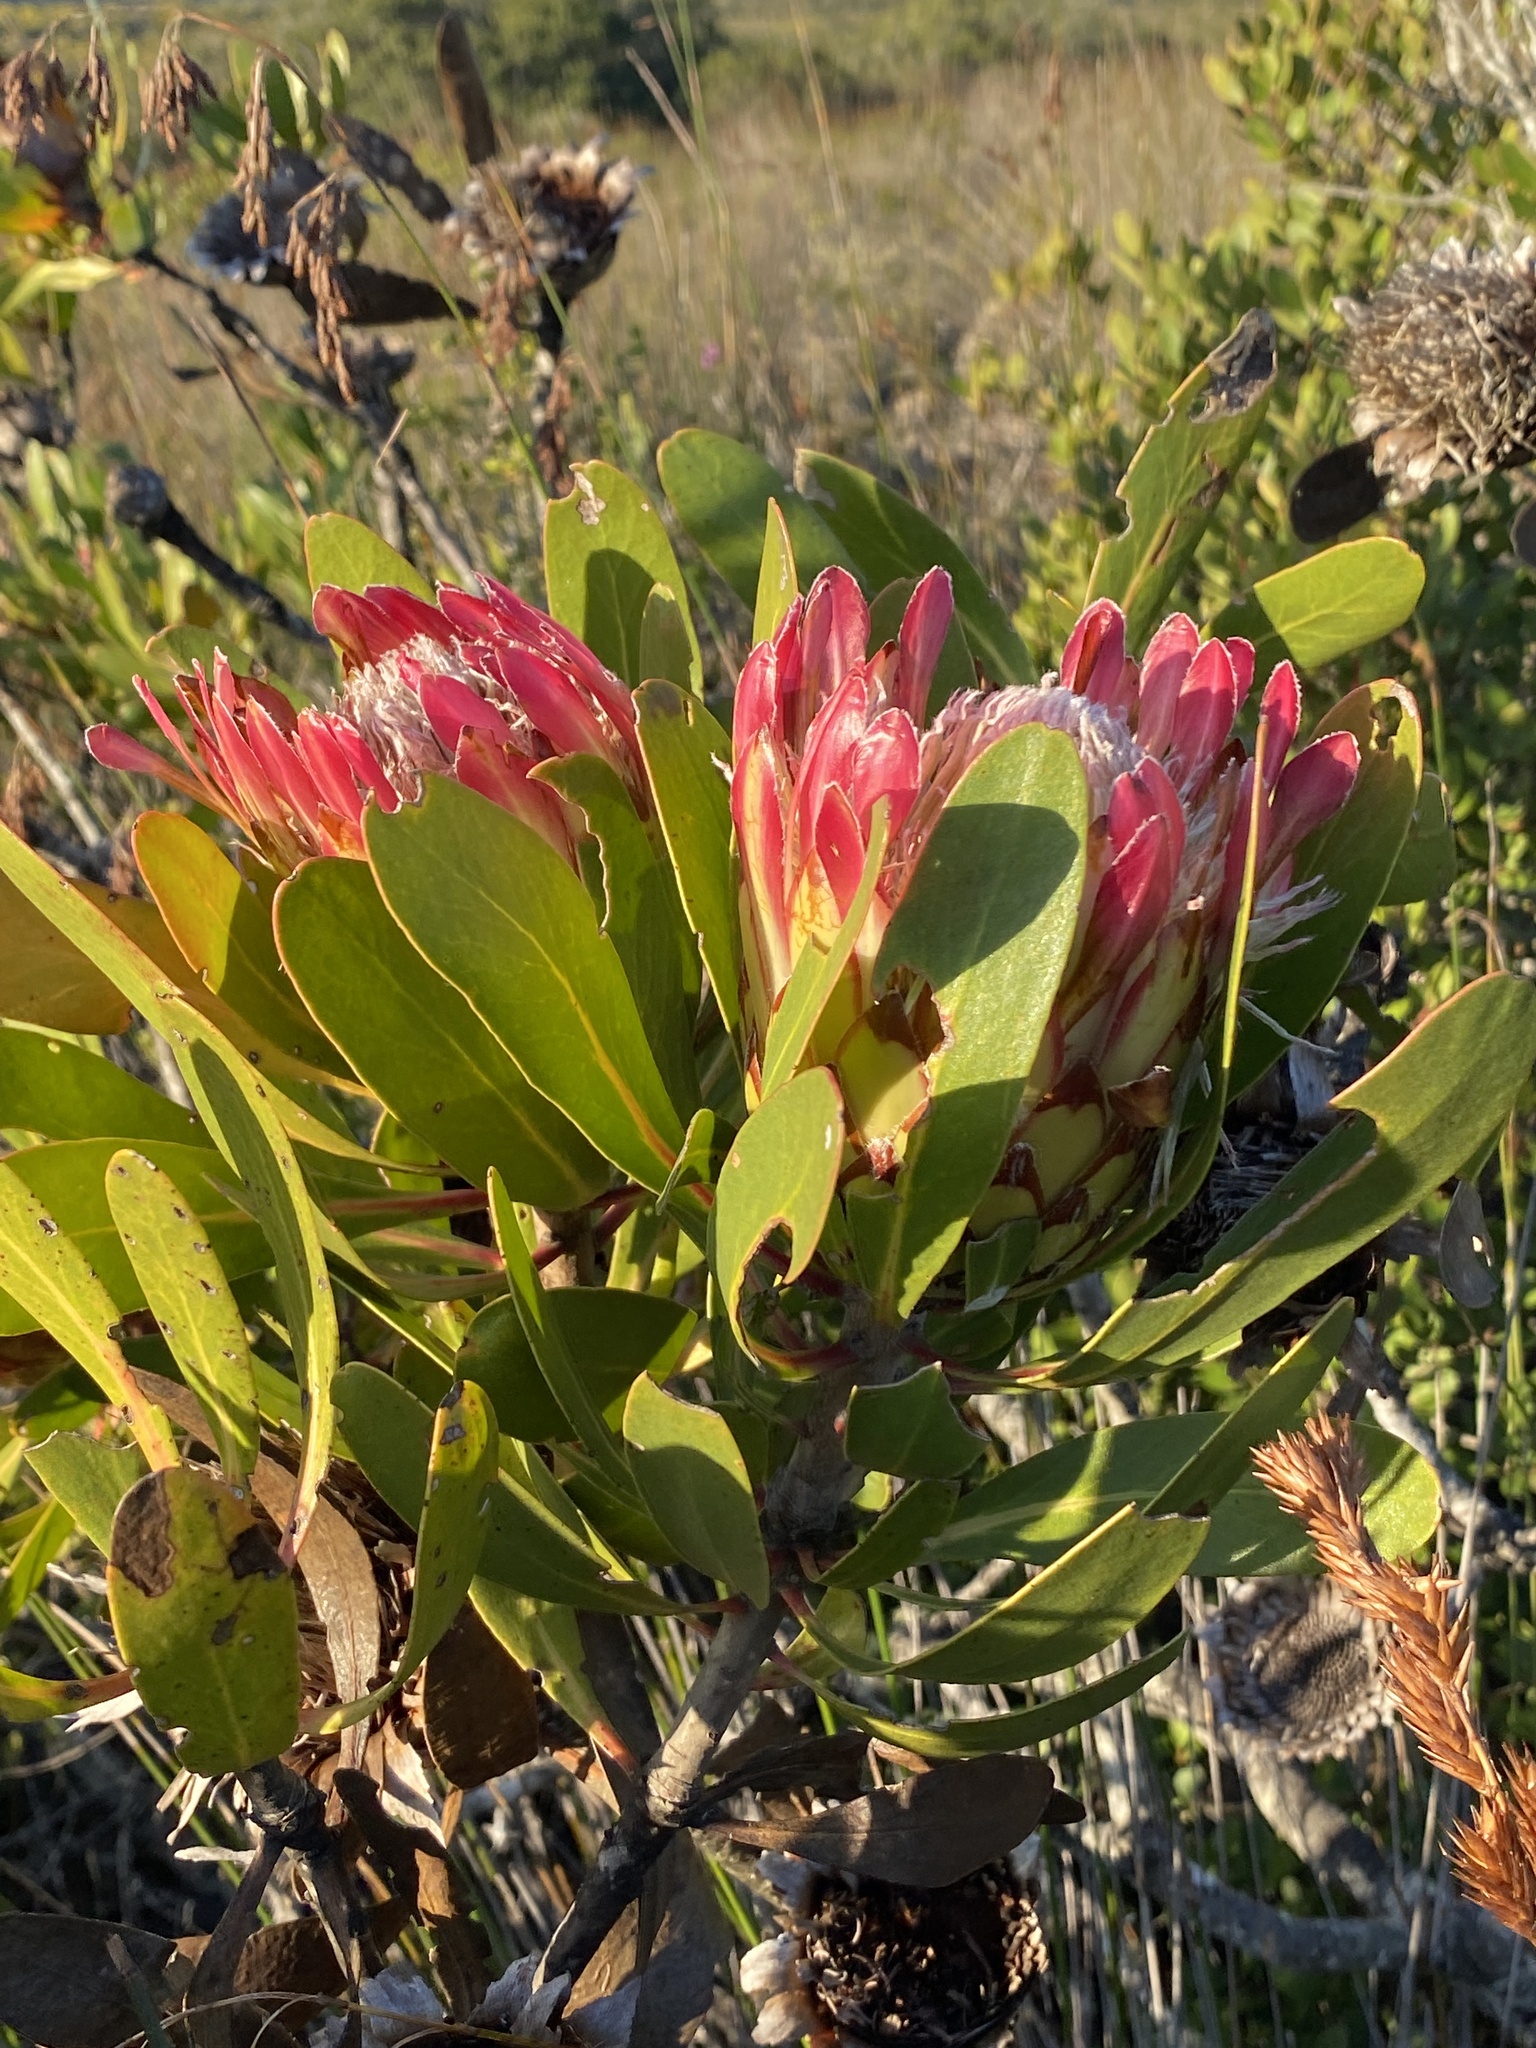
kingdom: Plantae
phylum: Tracheophyta
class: Magnoliopsida
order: Proteales
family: Proteaceae
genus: Protea
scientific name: Protea obtusifolia
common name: Bredasdorp sugarbush
